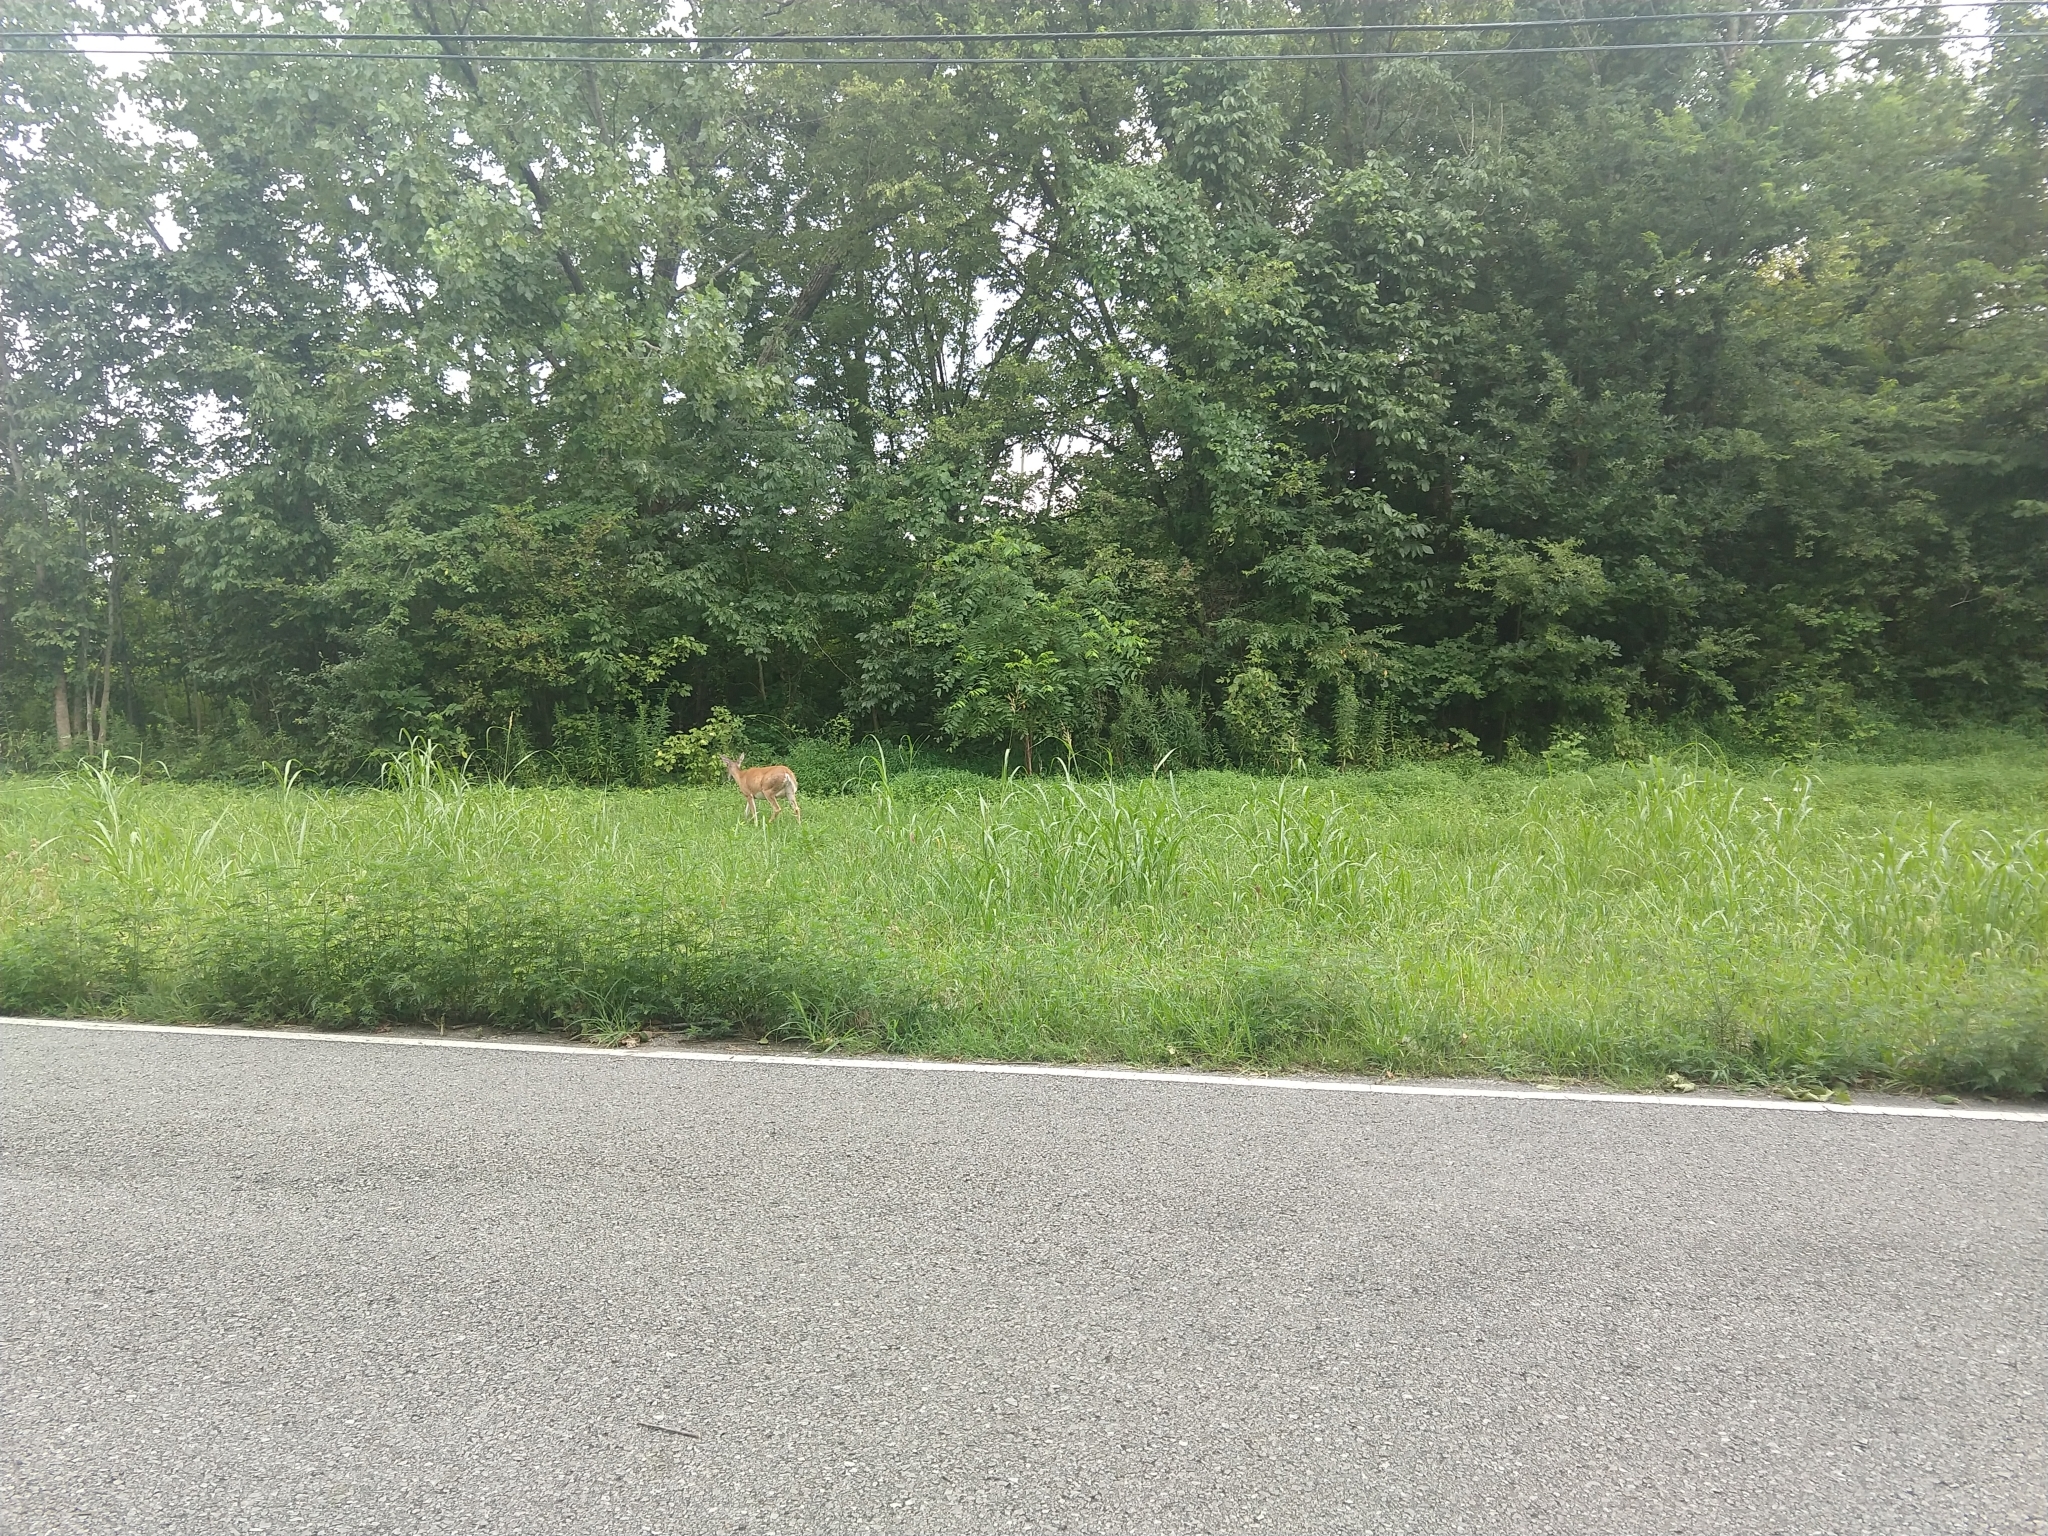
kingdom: Animalia
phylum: Chordata
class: Mammalia
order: Artiodactyla
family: Cervidae
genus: Odocoileus
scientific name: Odocoileus virginianus
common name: White-tailed deer
